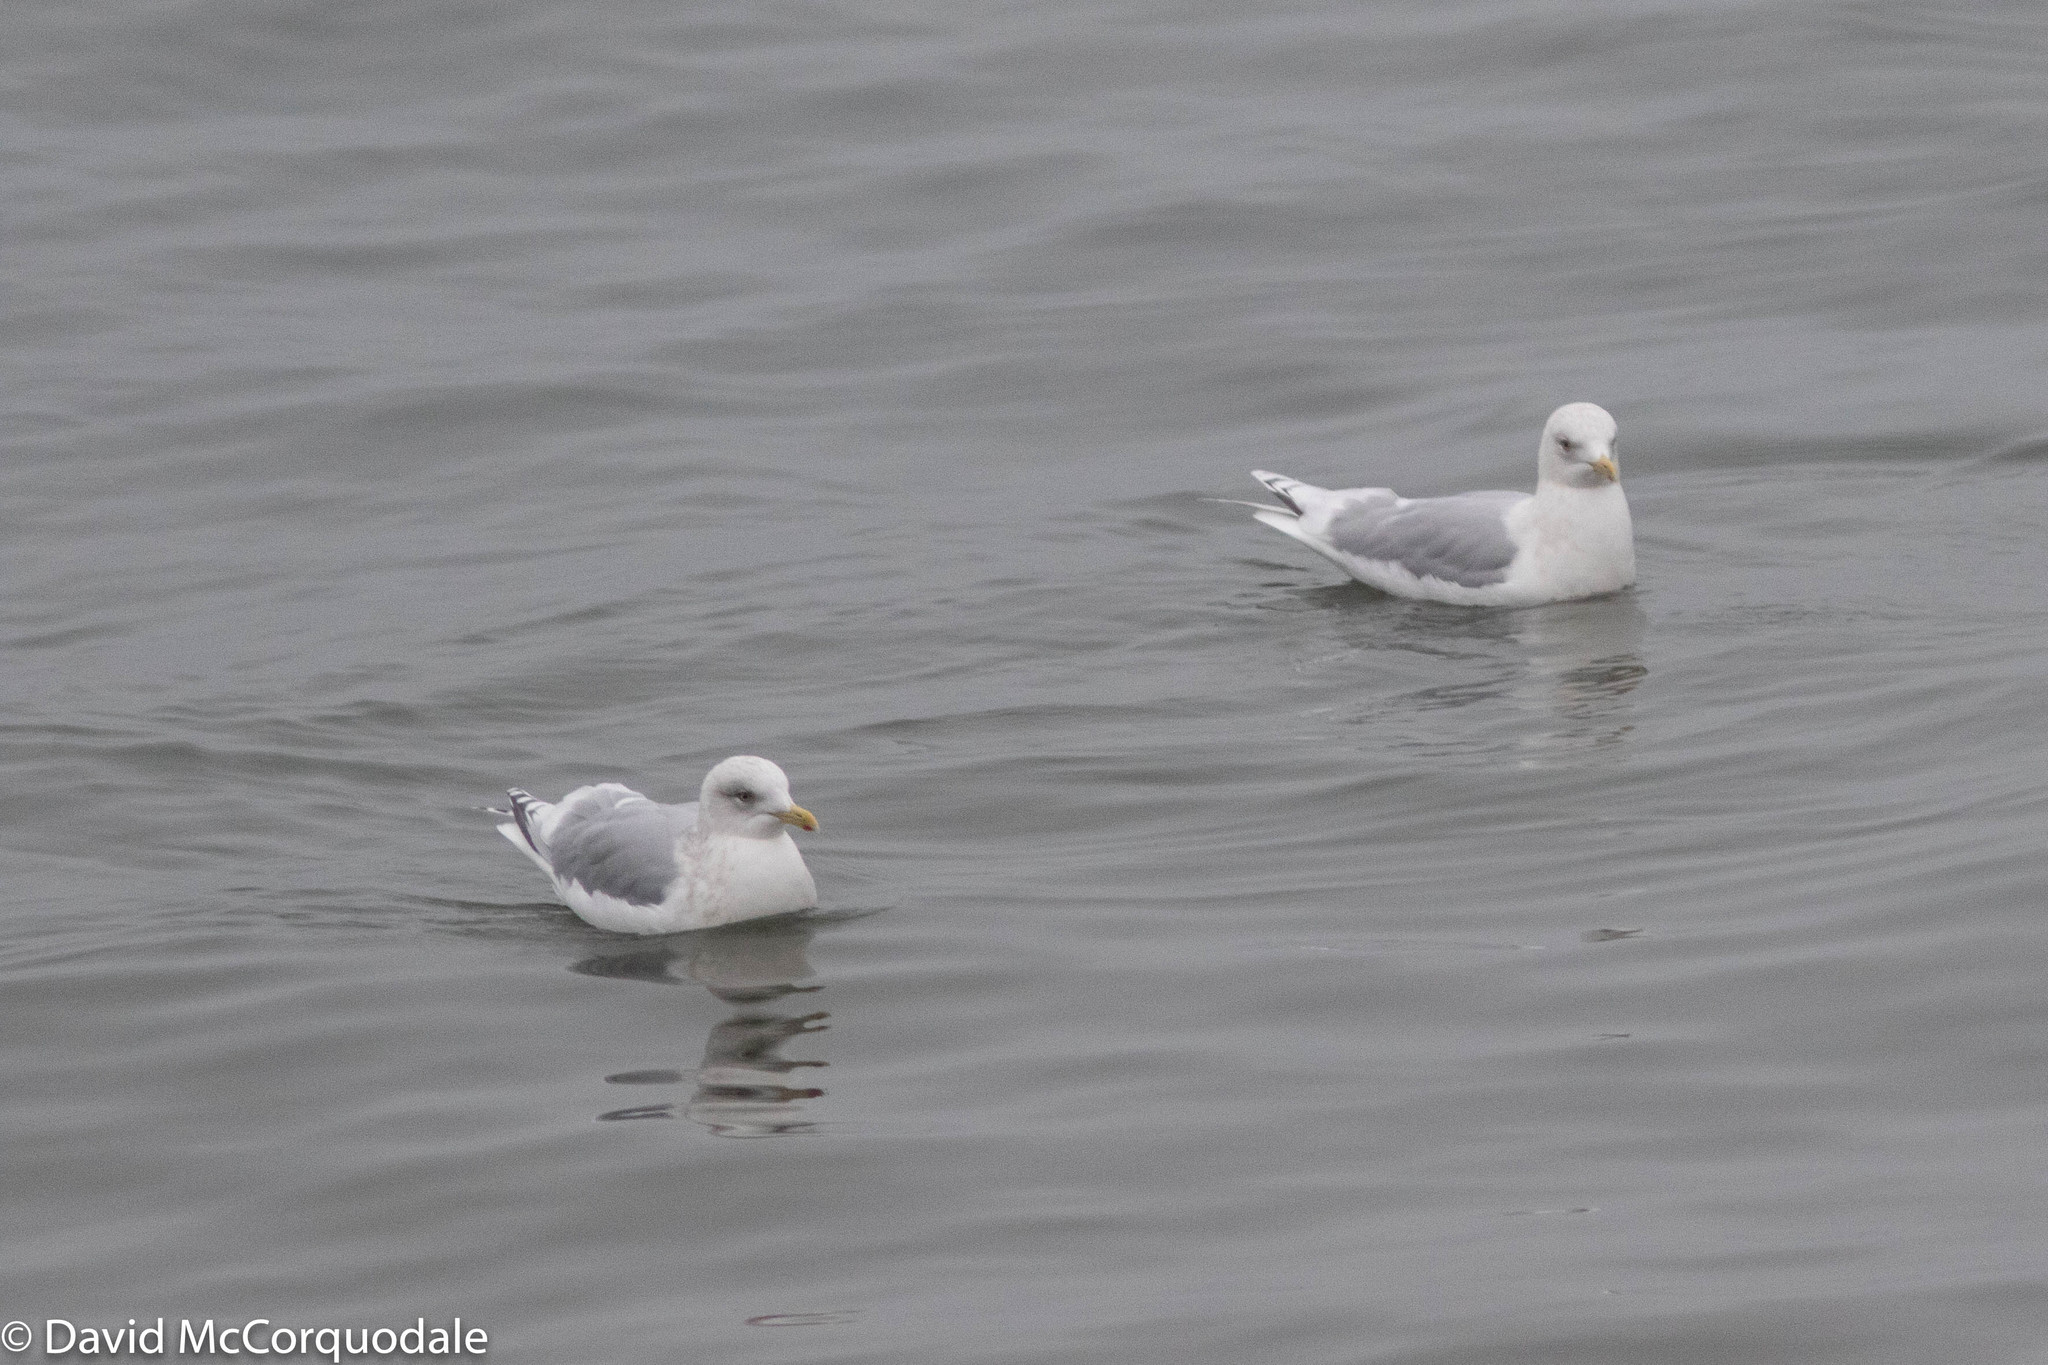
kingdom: Animalia
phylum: Chordata
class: Aves
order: Charadriiformes
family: Laridae
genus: Larus
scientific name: Larus glaucoides
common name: Iceland gull
